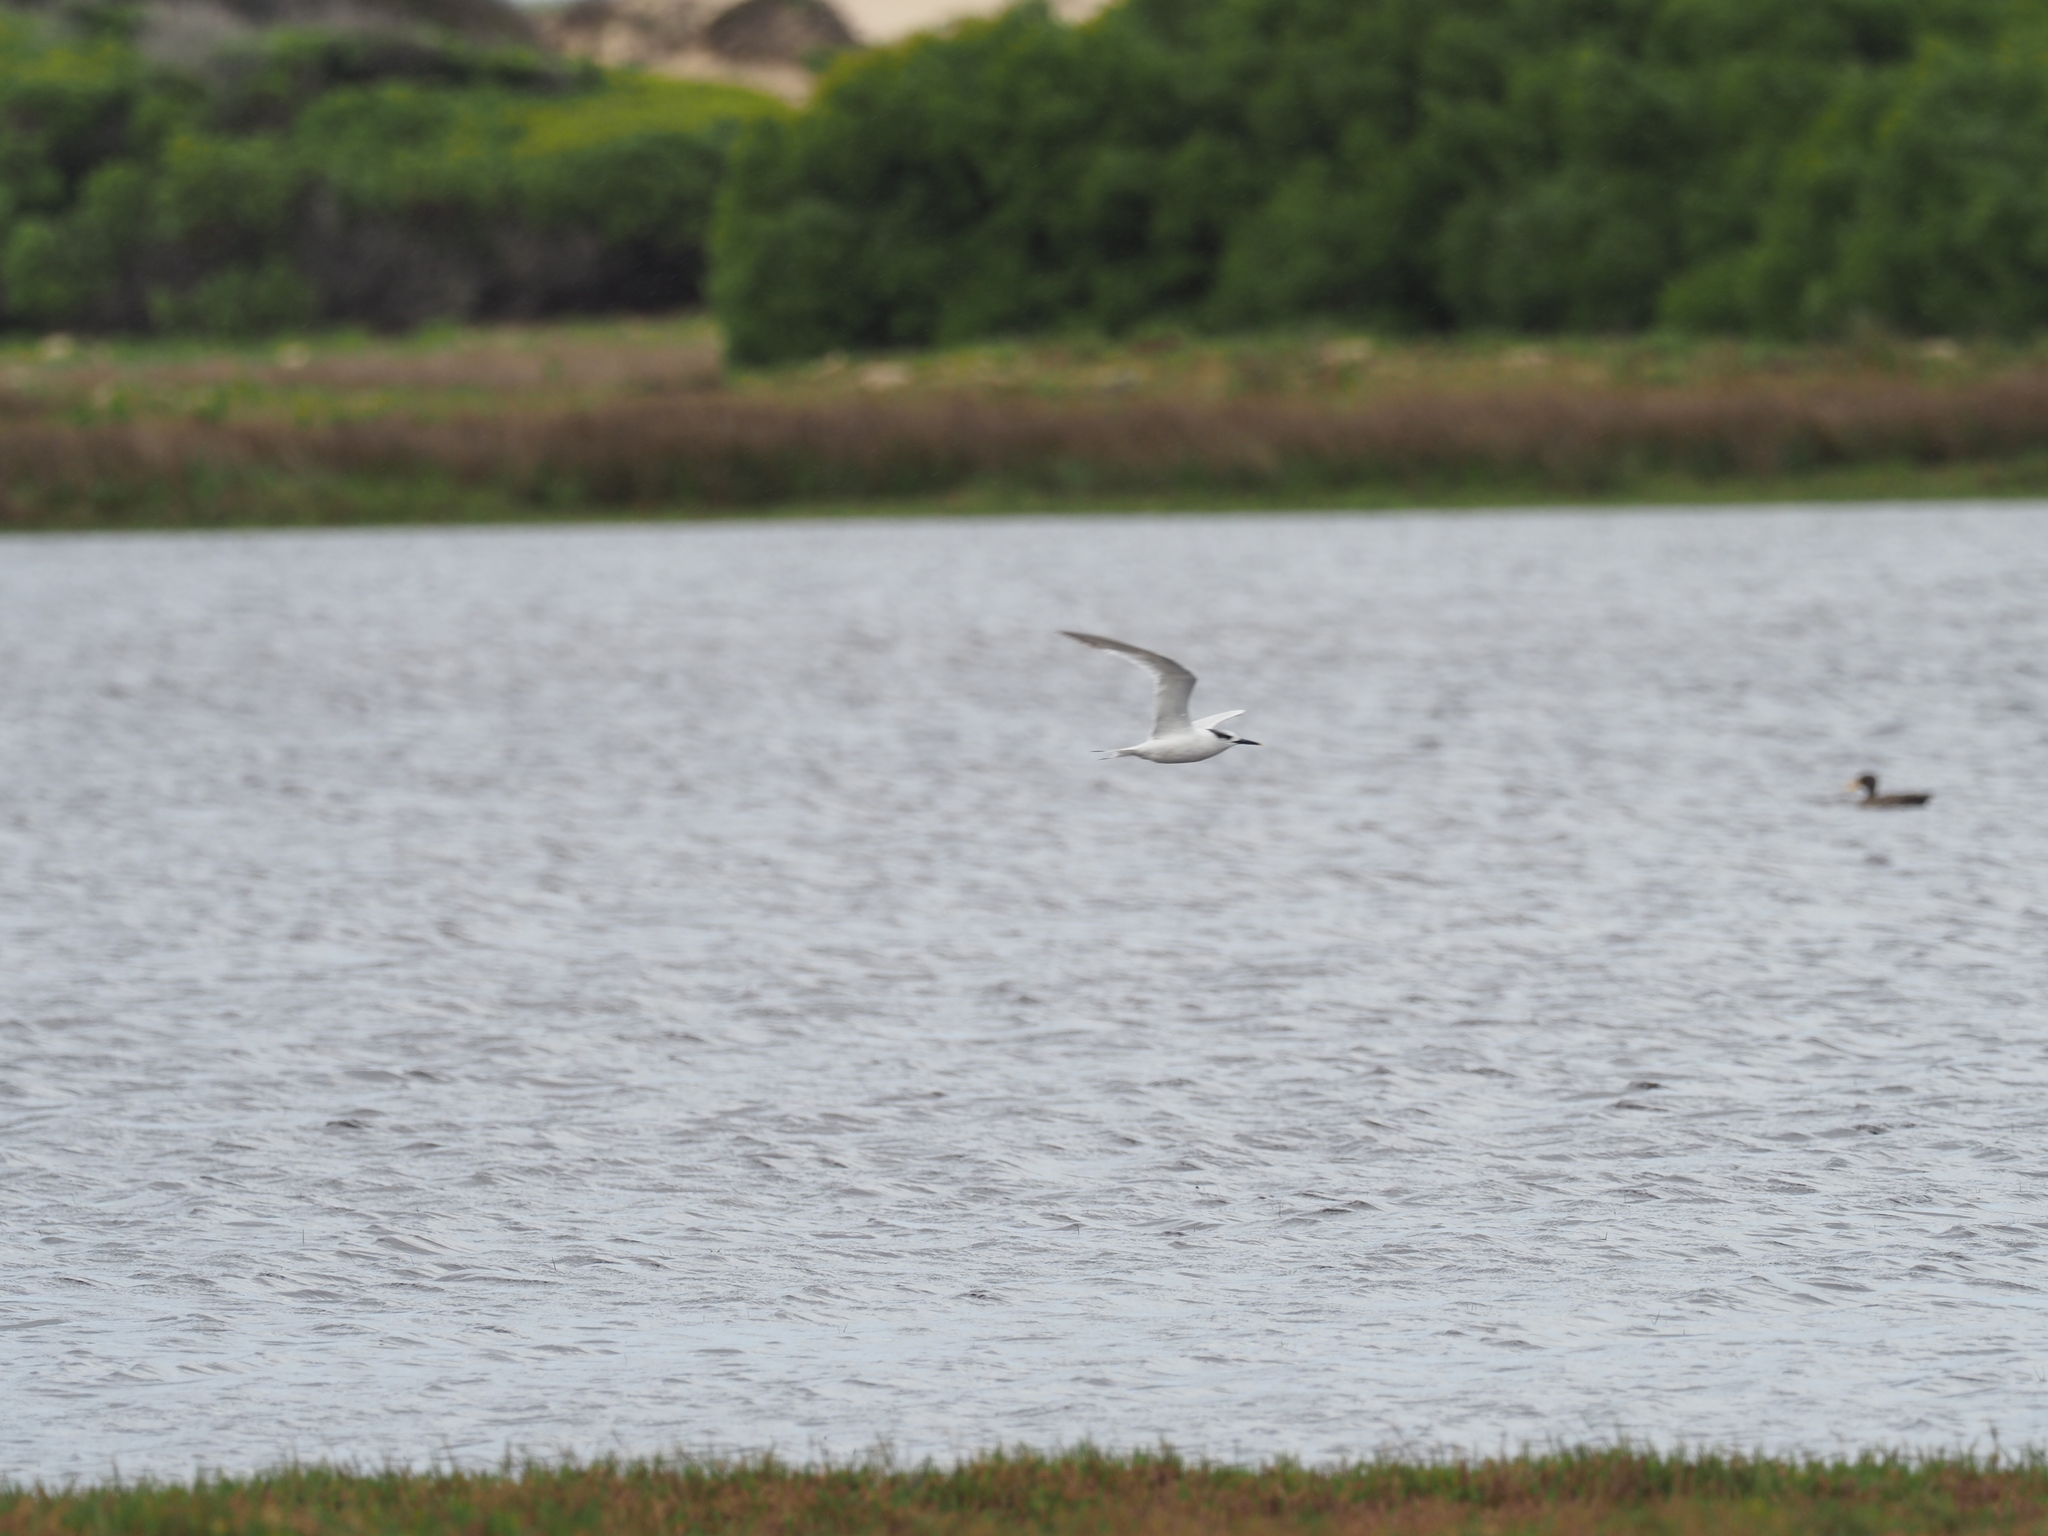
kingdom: Animalia
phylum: Chordata
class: Aves
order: Charadriiformes
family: Laridae
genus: Thalasseus
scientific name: Thalasseus sandvicensis
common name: Sandwich tern
